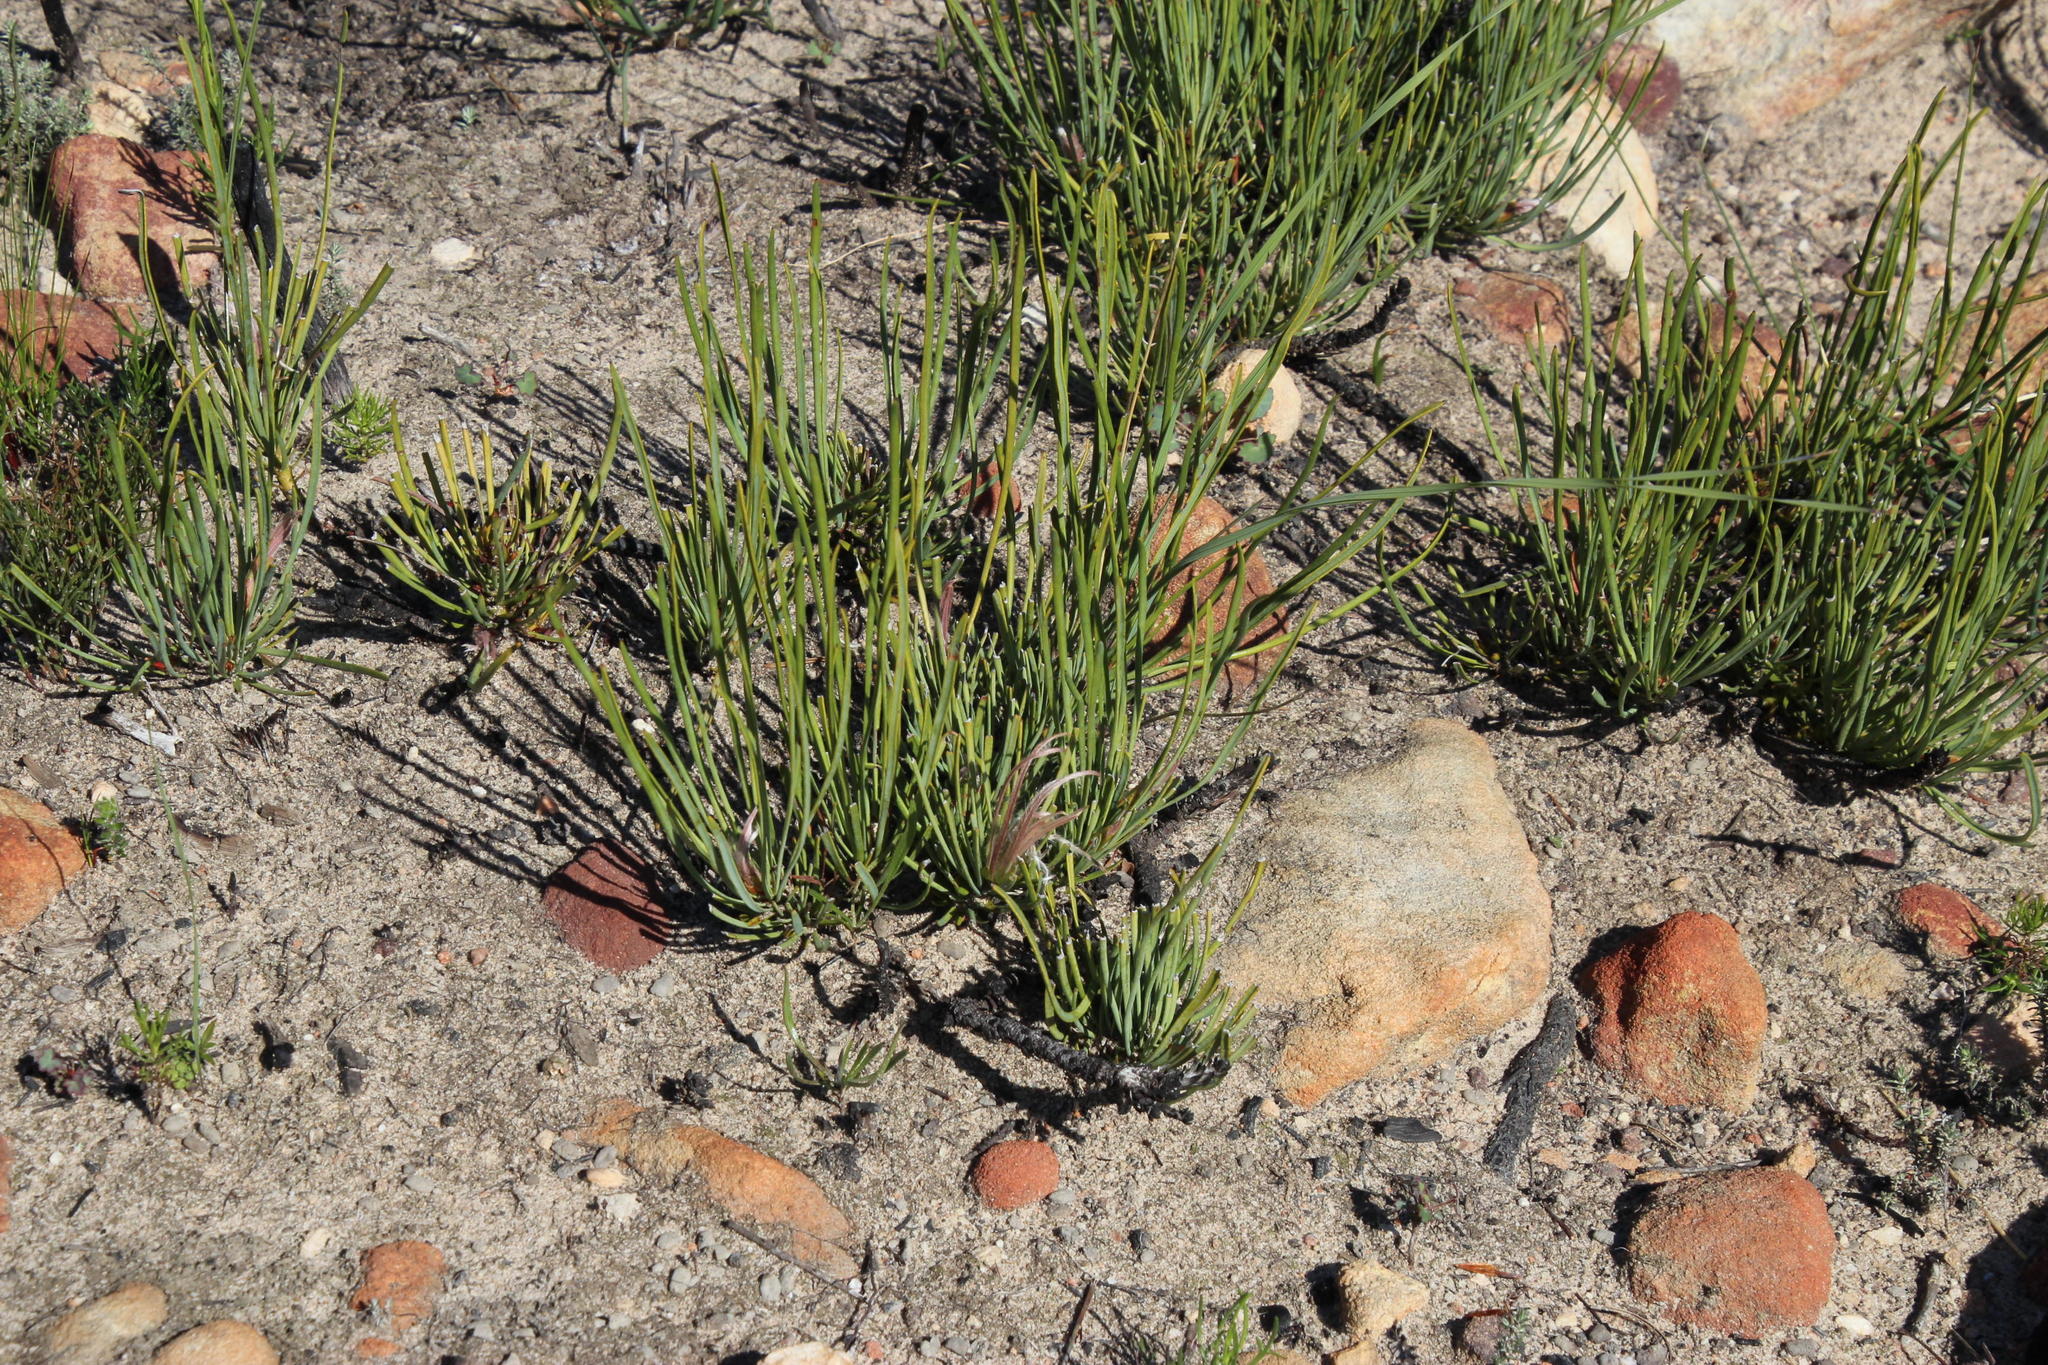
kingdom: Plantae
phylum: Tracheophyta
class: Magnoliopsida
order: Proteales
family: Proteaceae
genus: Protea
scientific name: Protea scorzonerifolia
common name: Channel-leaf sugarbush
